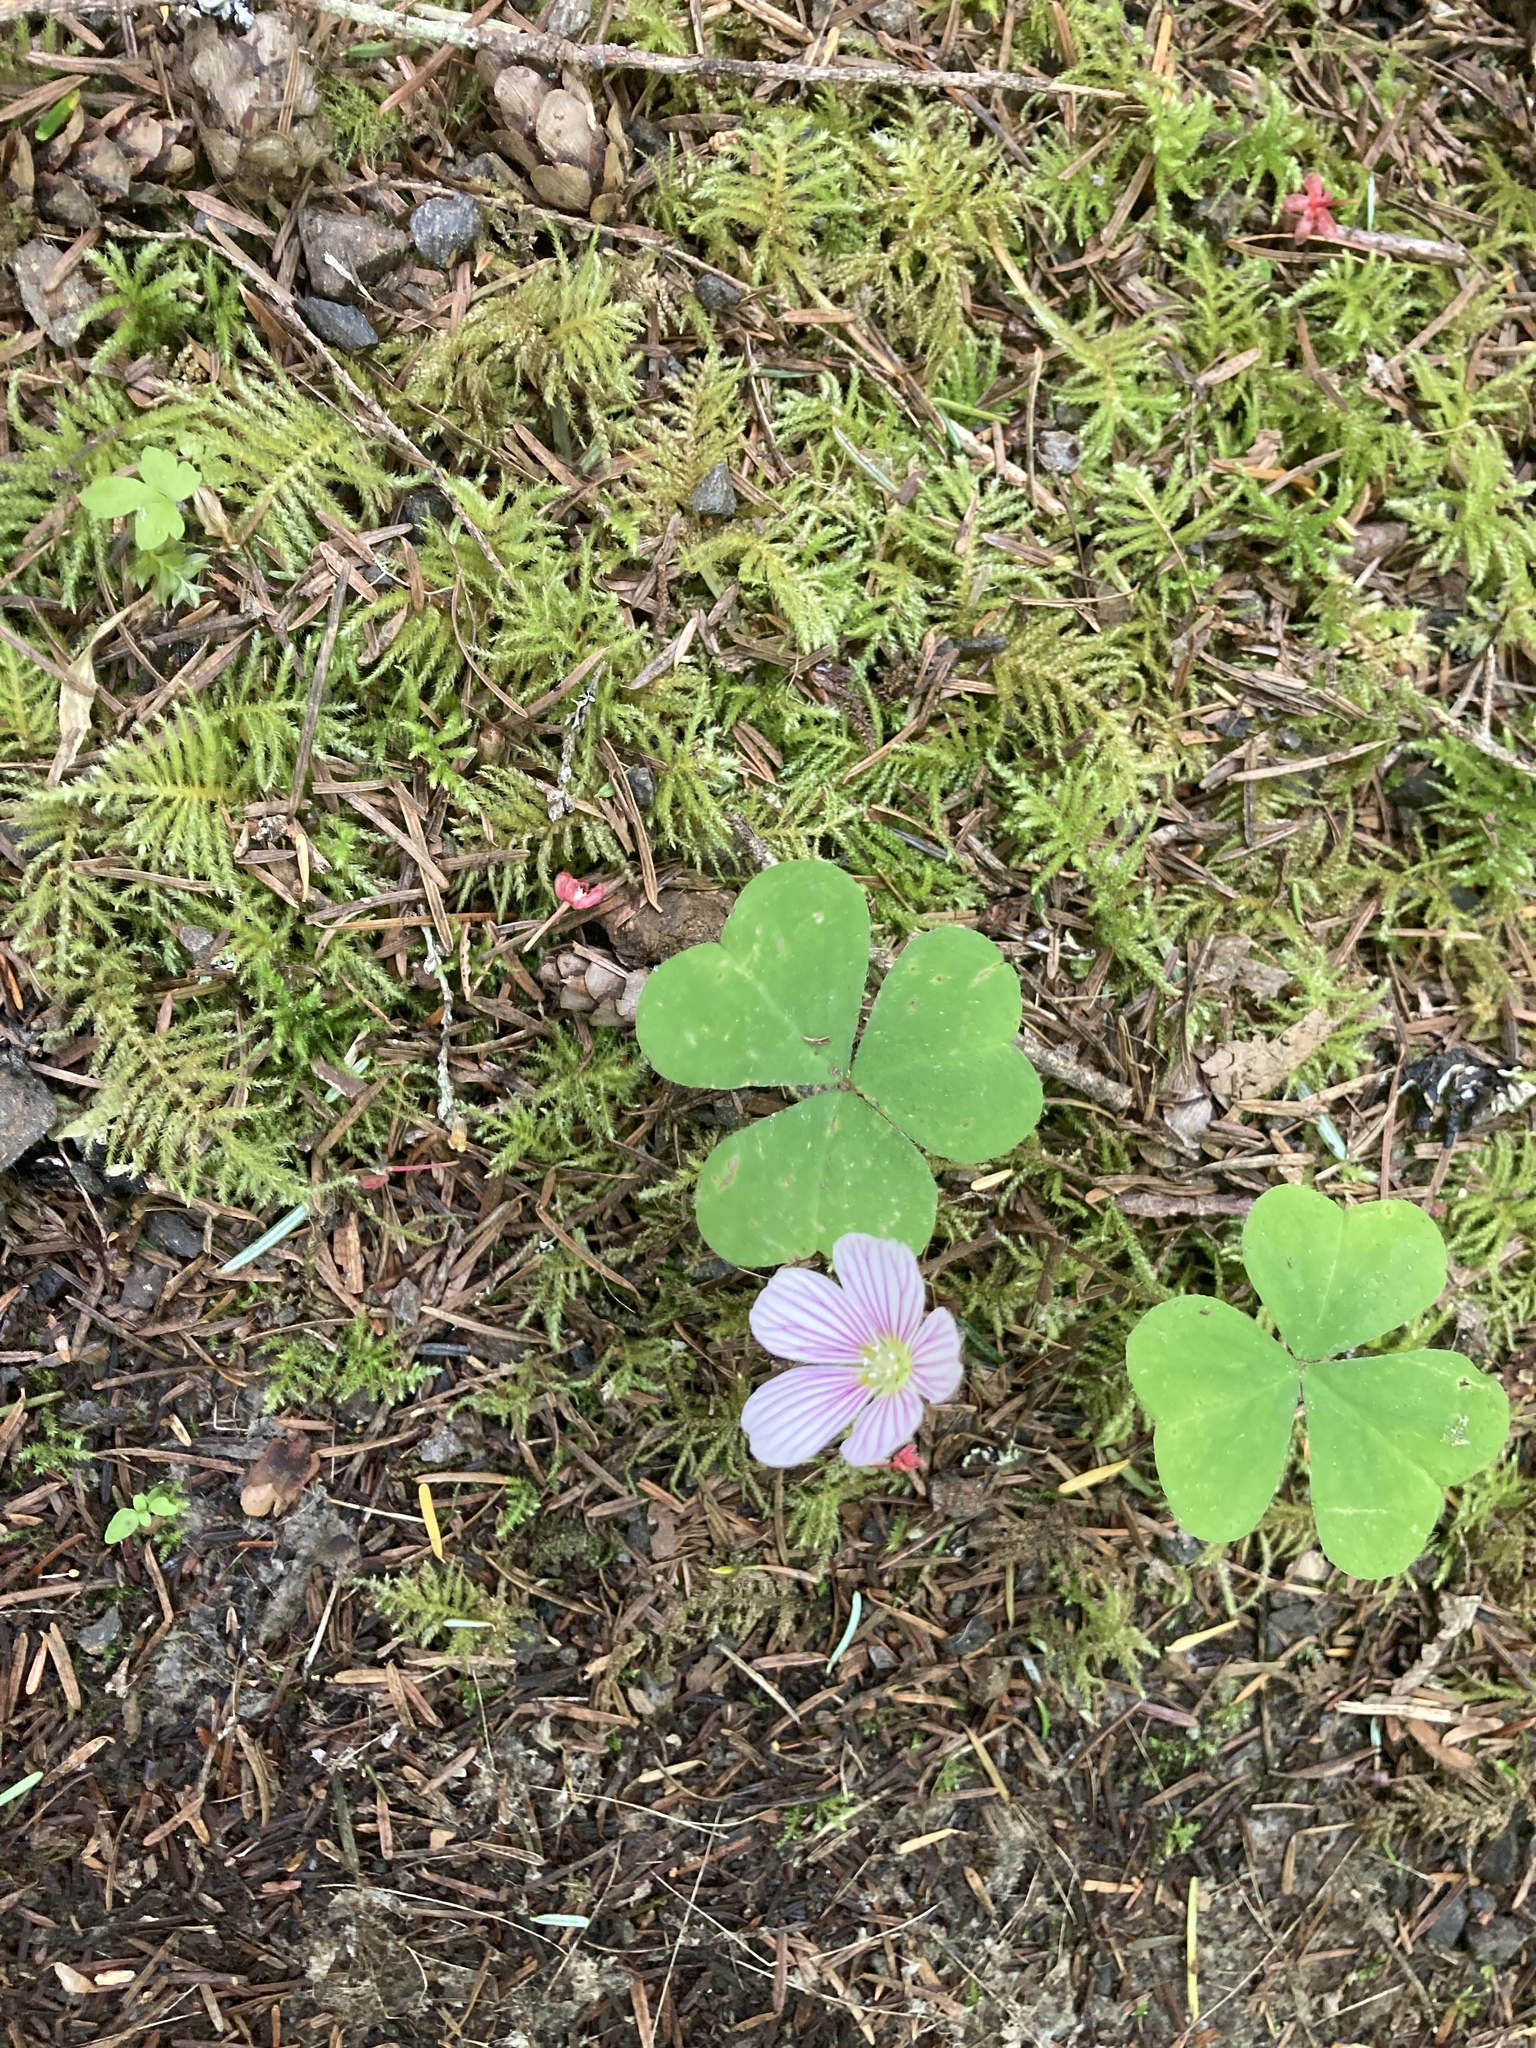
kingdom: Plantae
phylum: Tracheophyta
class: Magnoliopsida
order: Oxalidales
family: Oxalidaceae
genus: Oxalis
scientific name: Oxalis oregana
